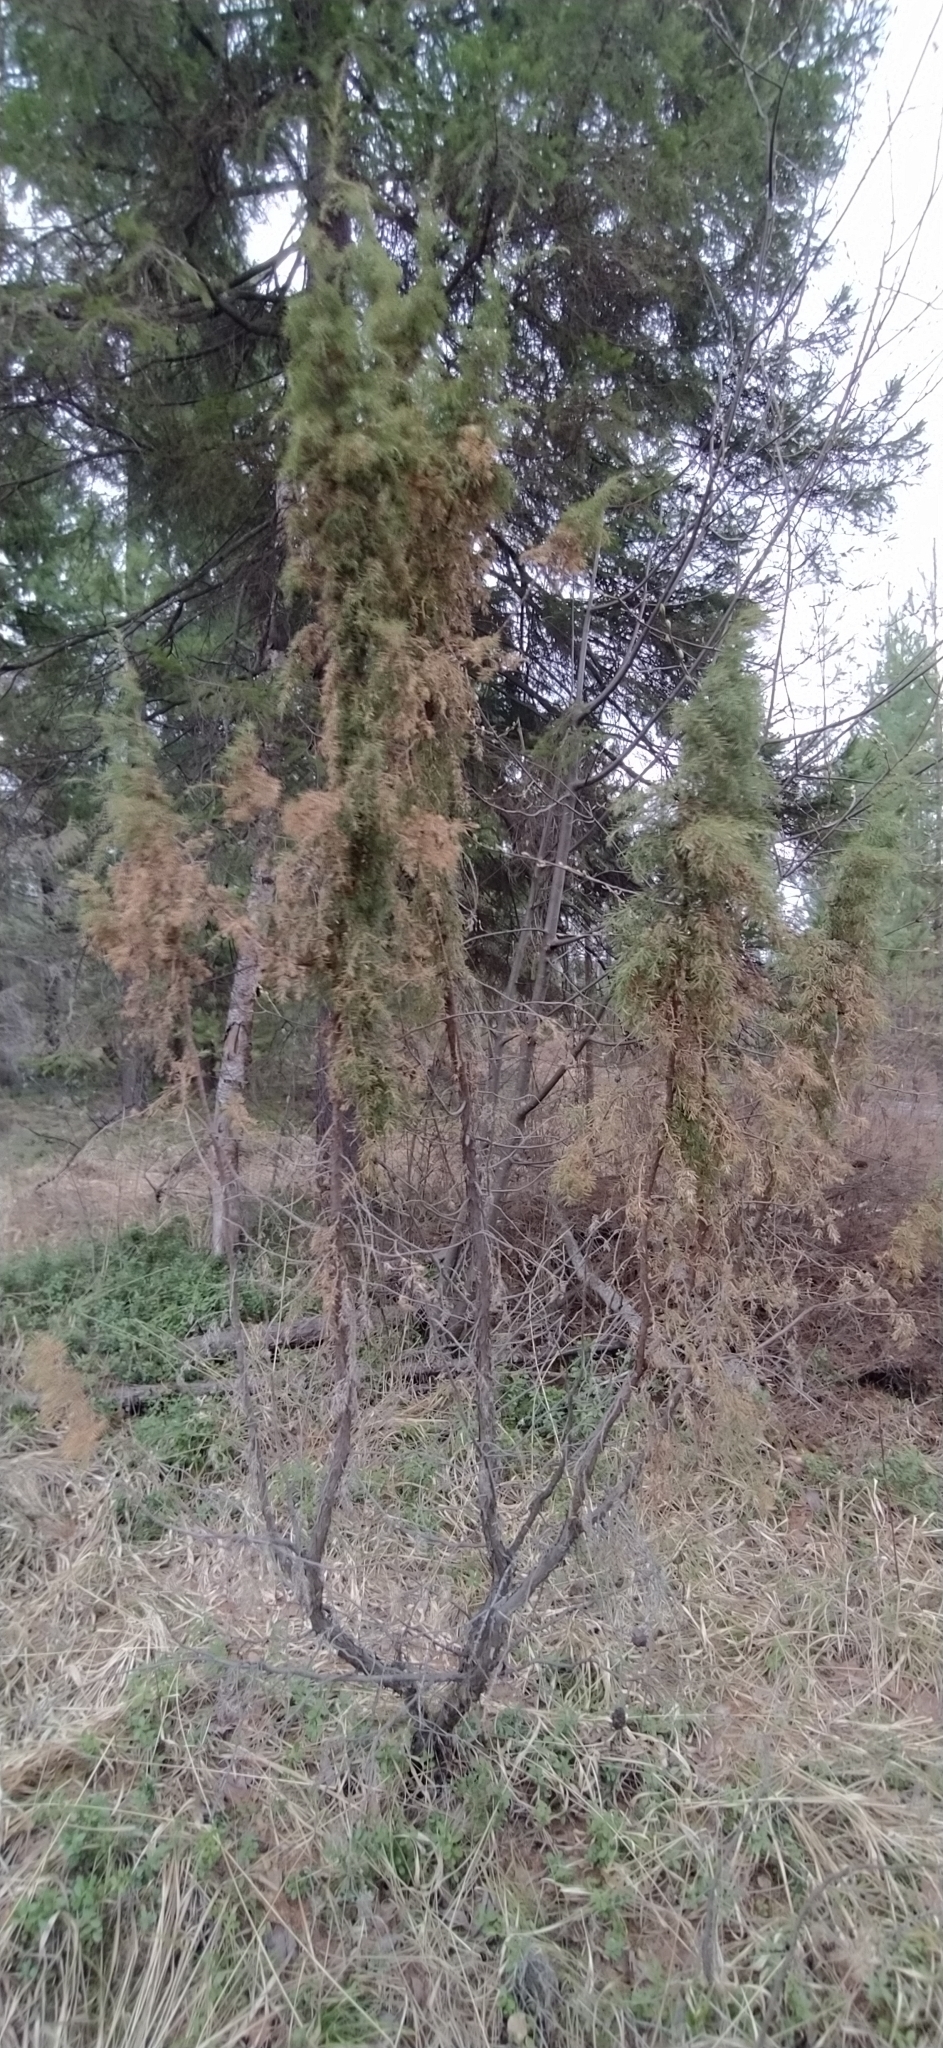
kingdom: Plantae
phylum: Tracheophyta
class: Pinopsida
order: Pinales
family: Cupressaceae
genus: Juniperus
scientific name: Juniperus communis
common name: Common juniper
